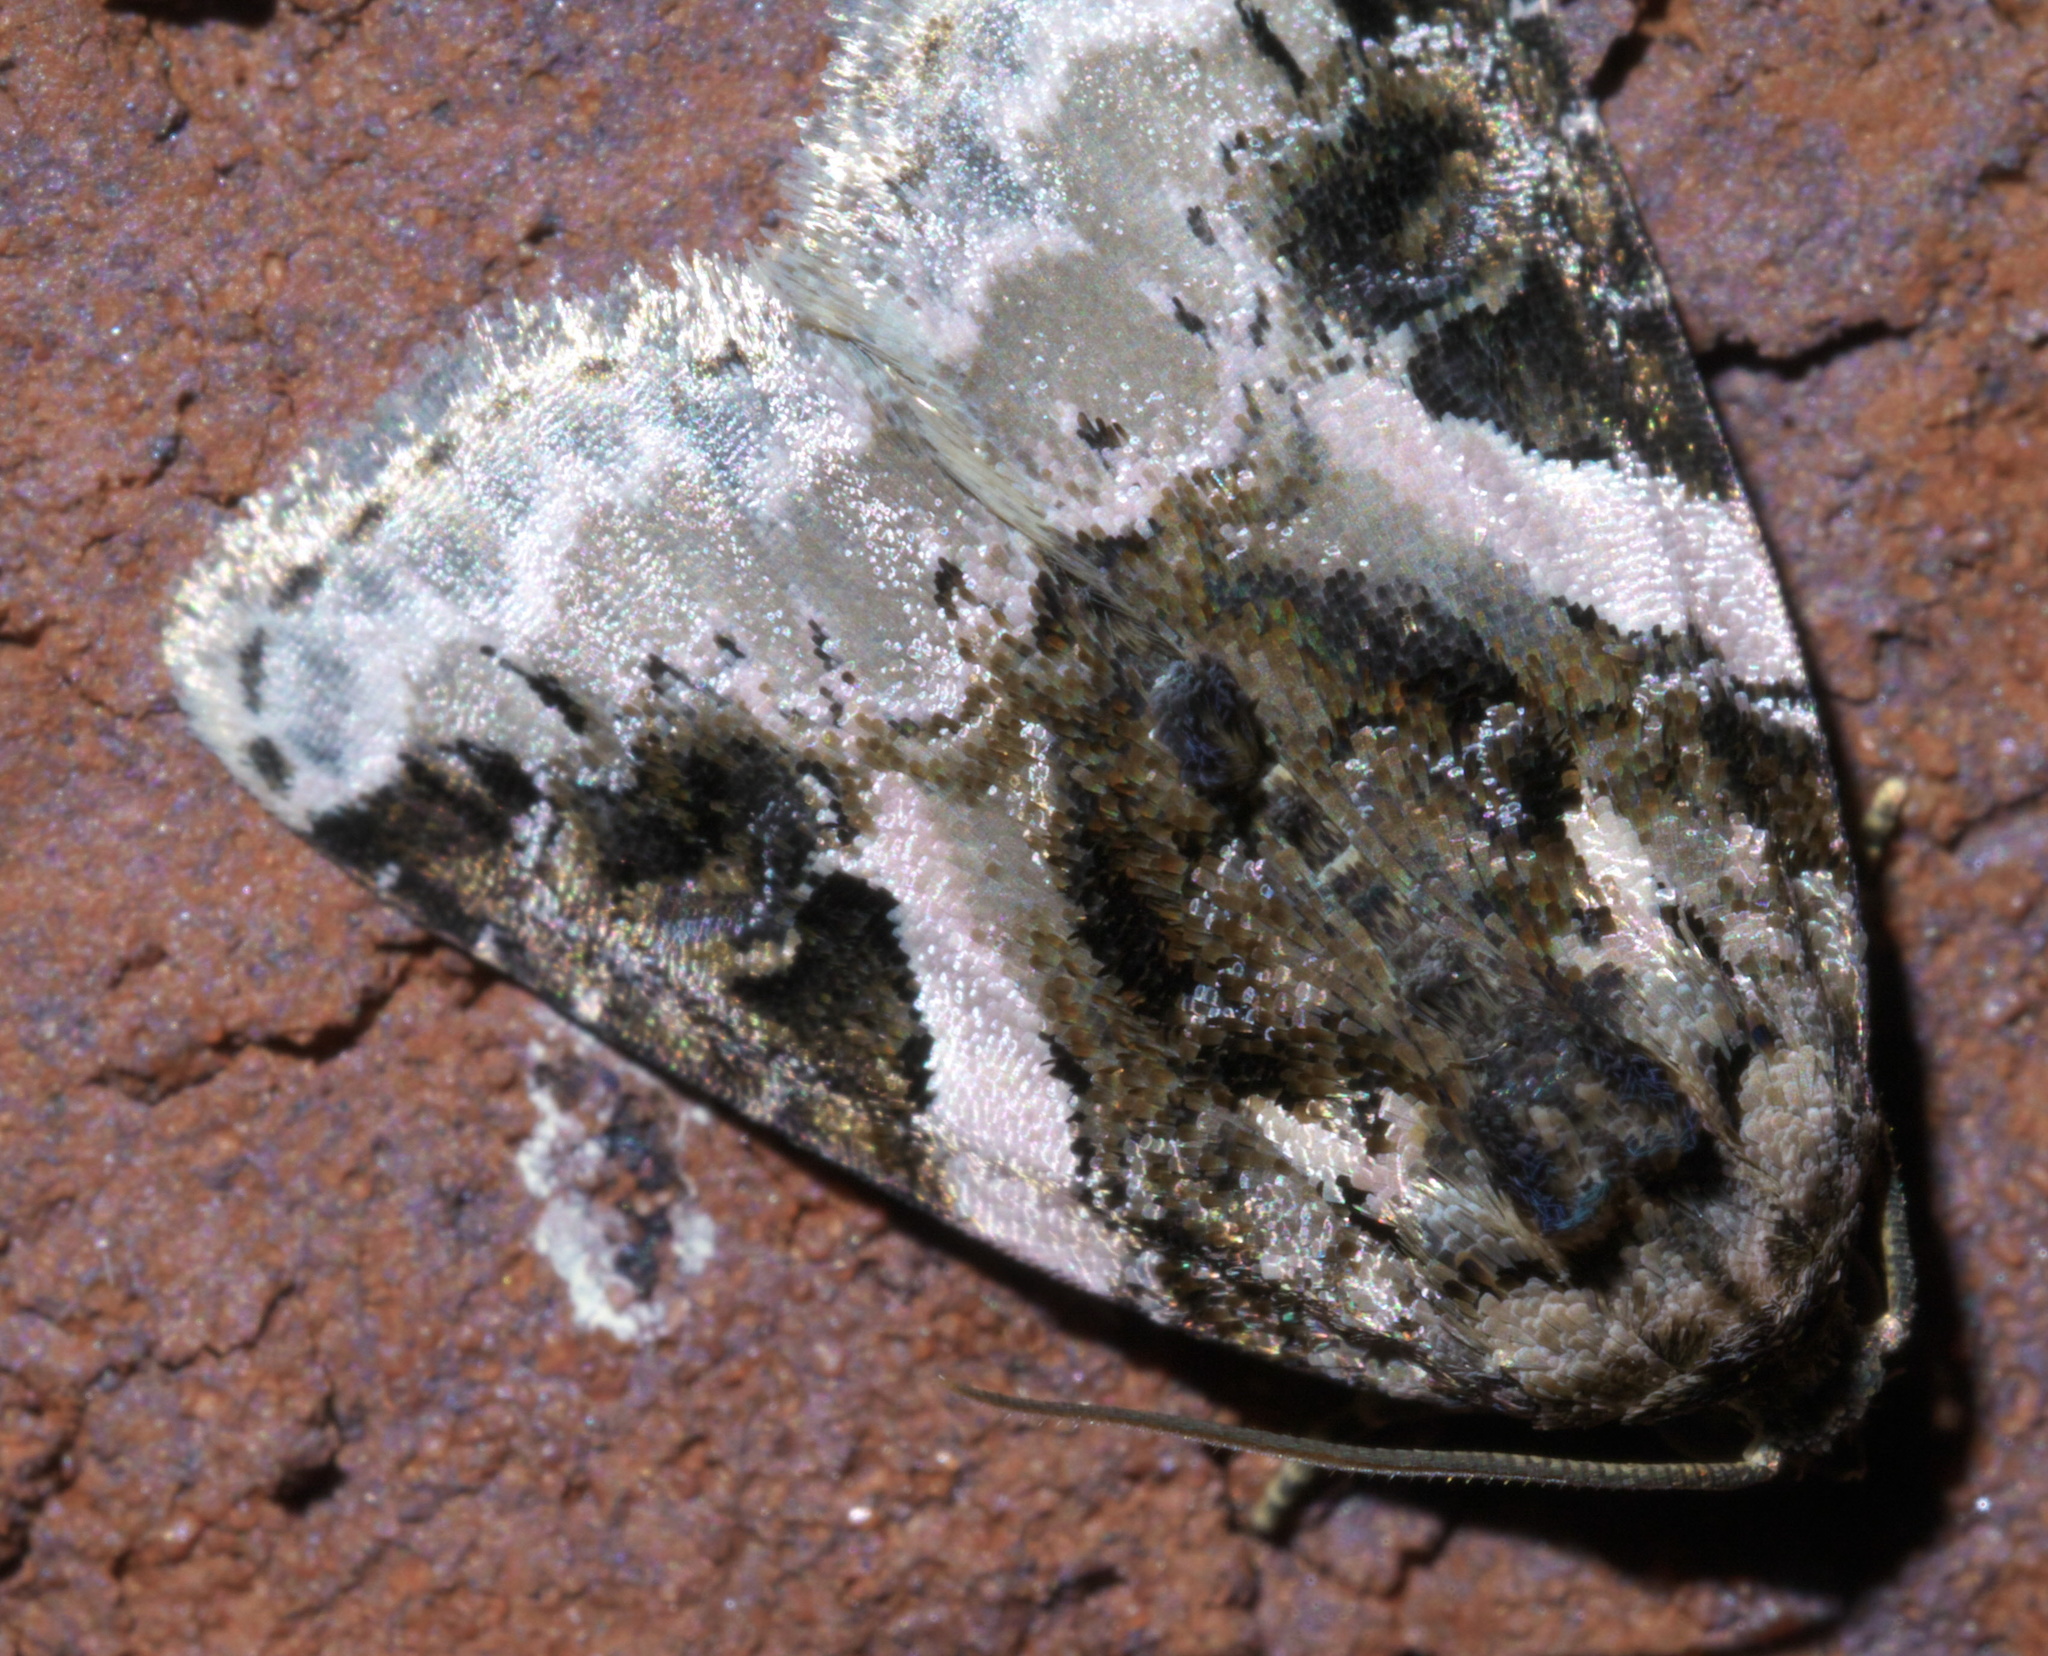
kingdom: Animalia
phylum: Arthropoda
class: Insecta
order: Lepidoptera
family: Noctuidae
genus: Pseudeustrotia
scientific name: Pseudeustrotia carneola
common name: Pink-barred lithacodia moth
